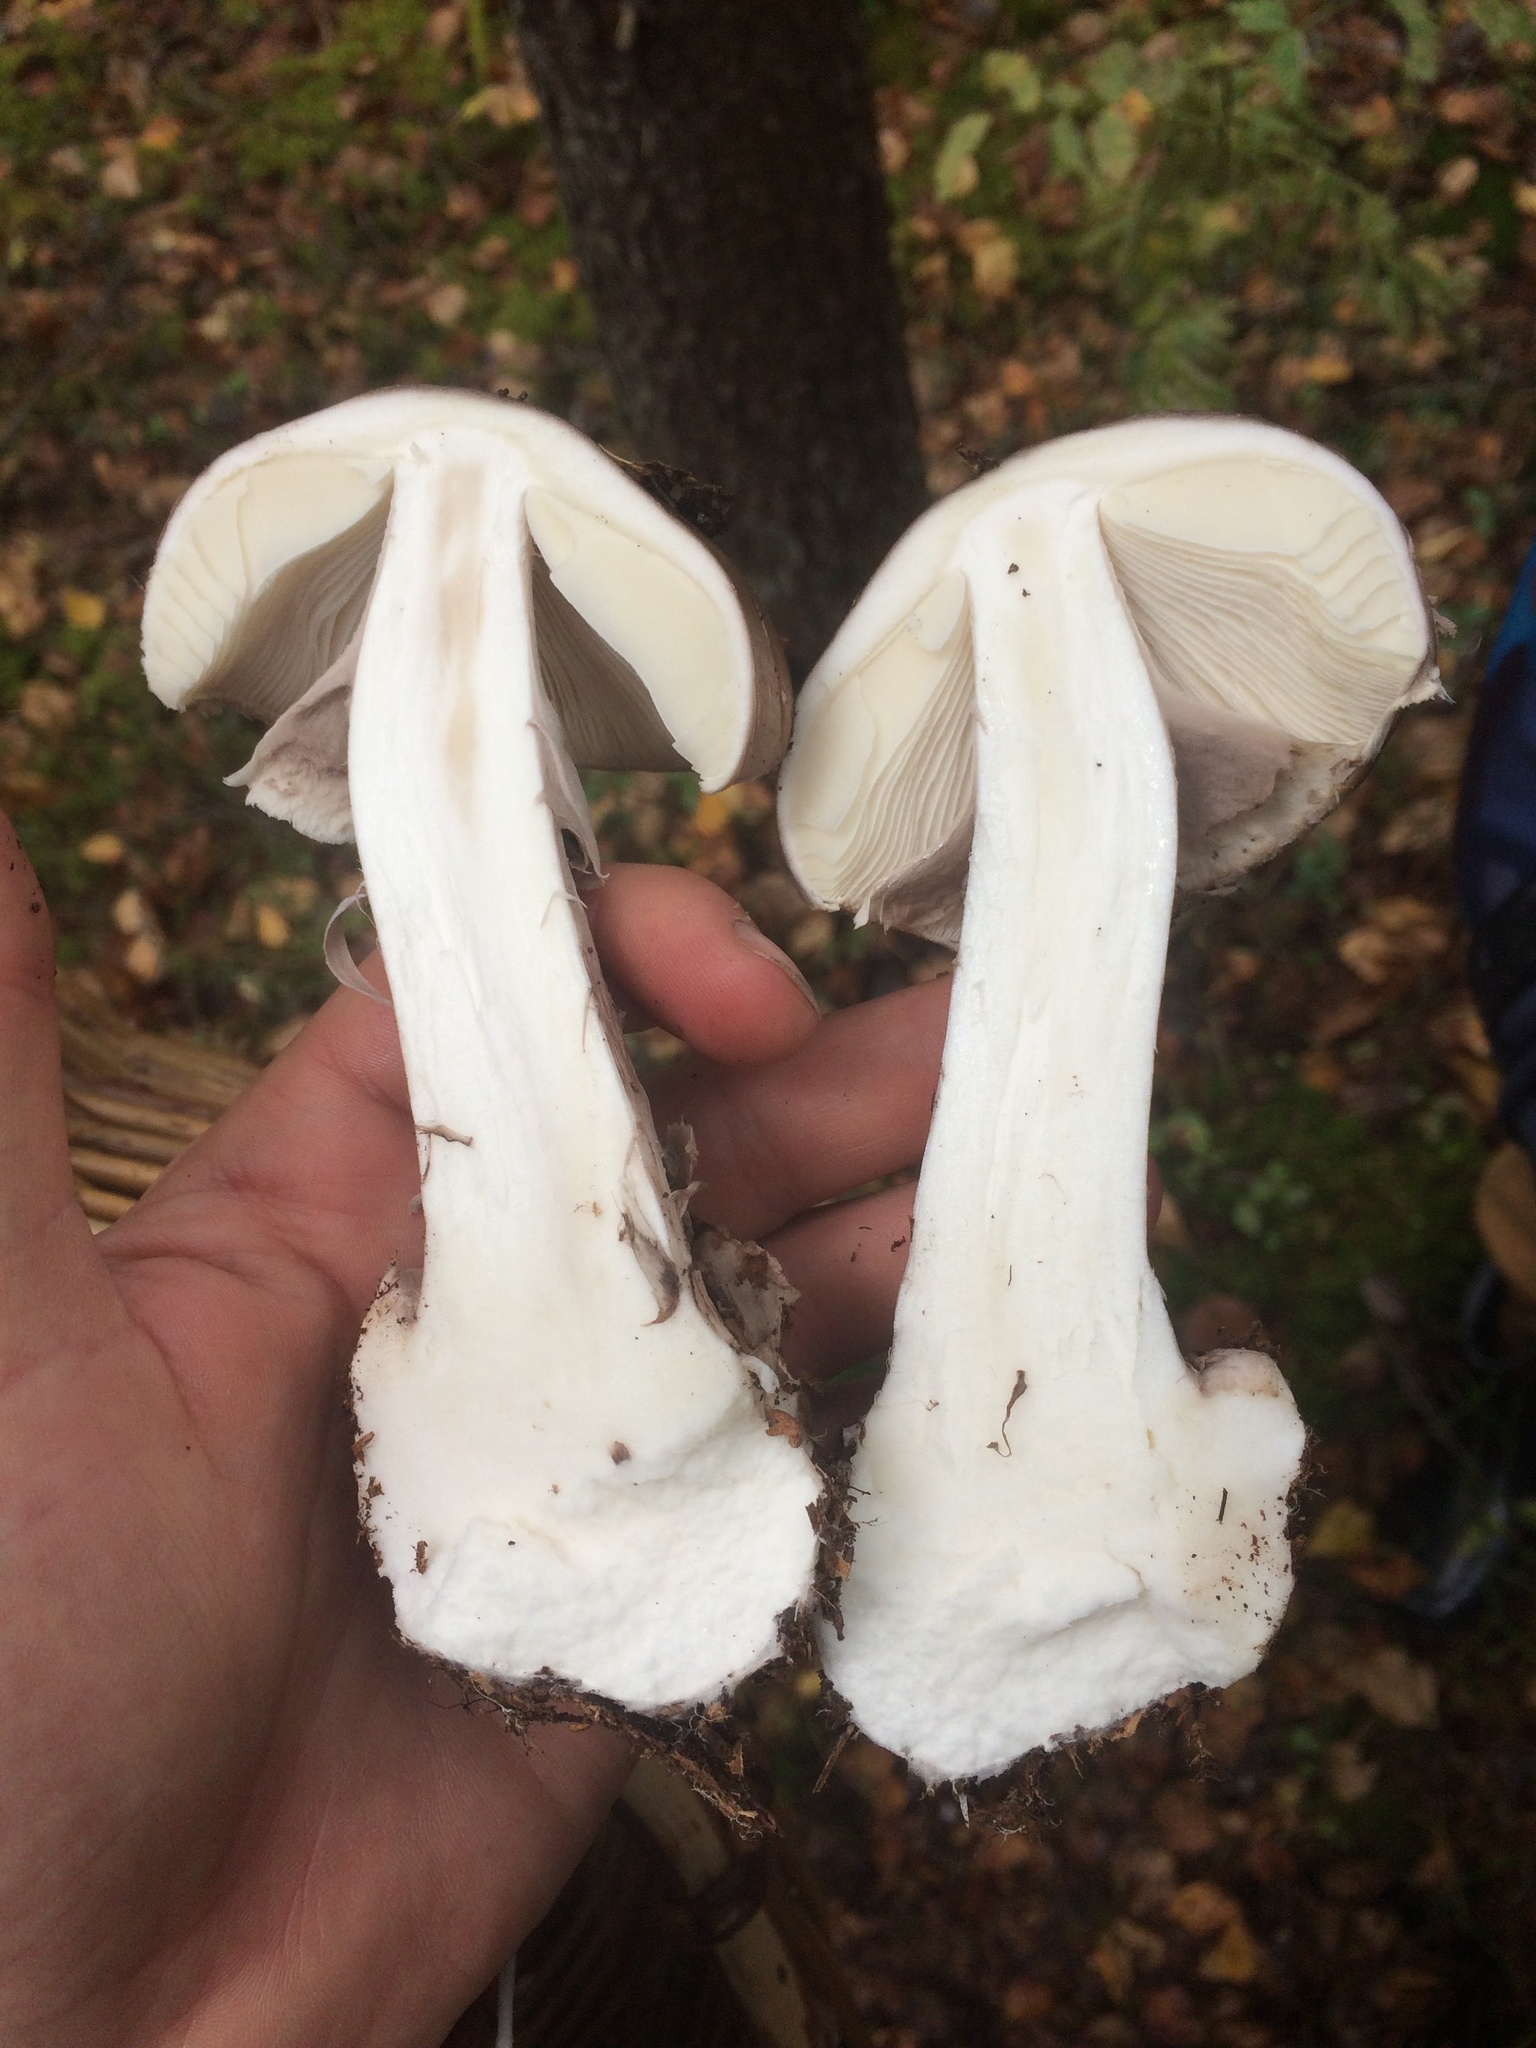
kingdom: Fungi
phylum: Basidiomycota
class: Agaricomycetes
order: Agaricales
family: Amanitaceae
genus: Amanita
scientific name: Amanita porphyria
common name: Grey veiled amanita
